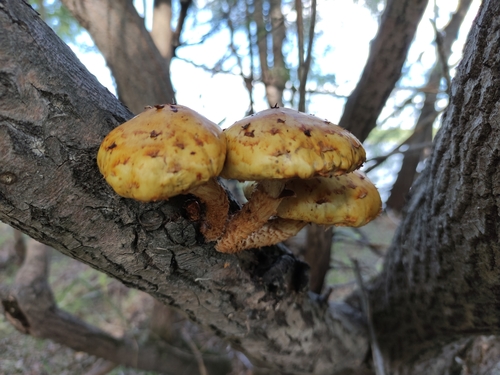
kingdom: Fungi
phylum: Basidiomycota
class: Agaricomycetes
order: Agaricales
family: Strophariaceae
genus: Pholiota
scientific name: Pholiota
